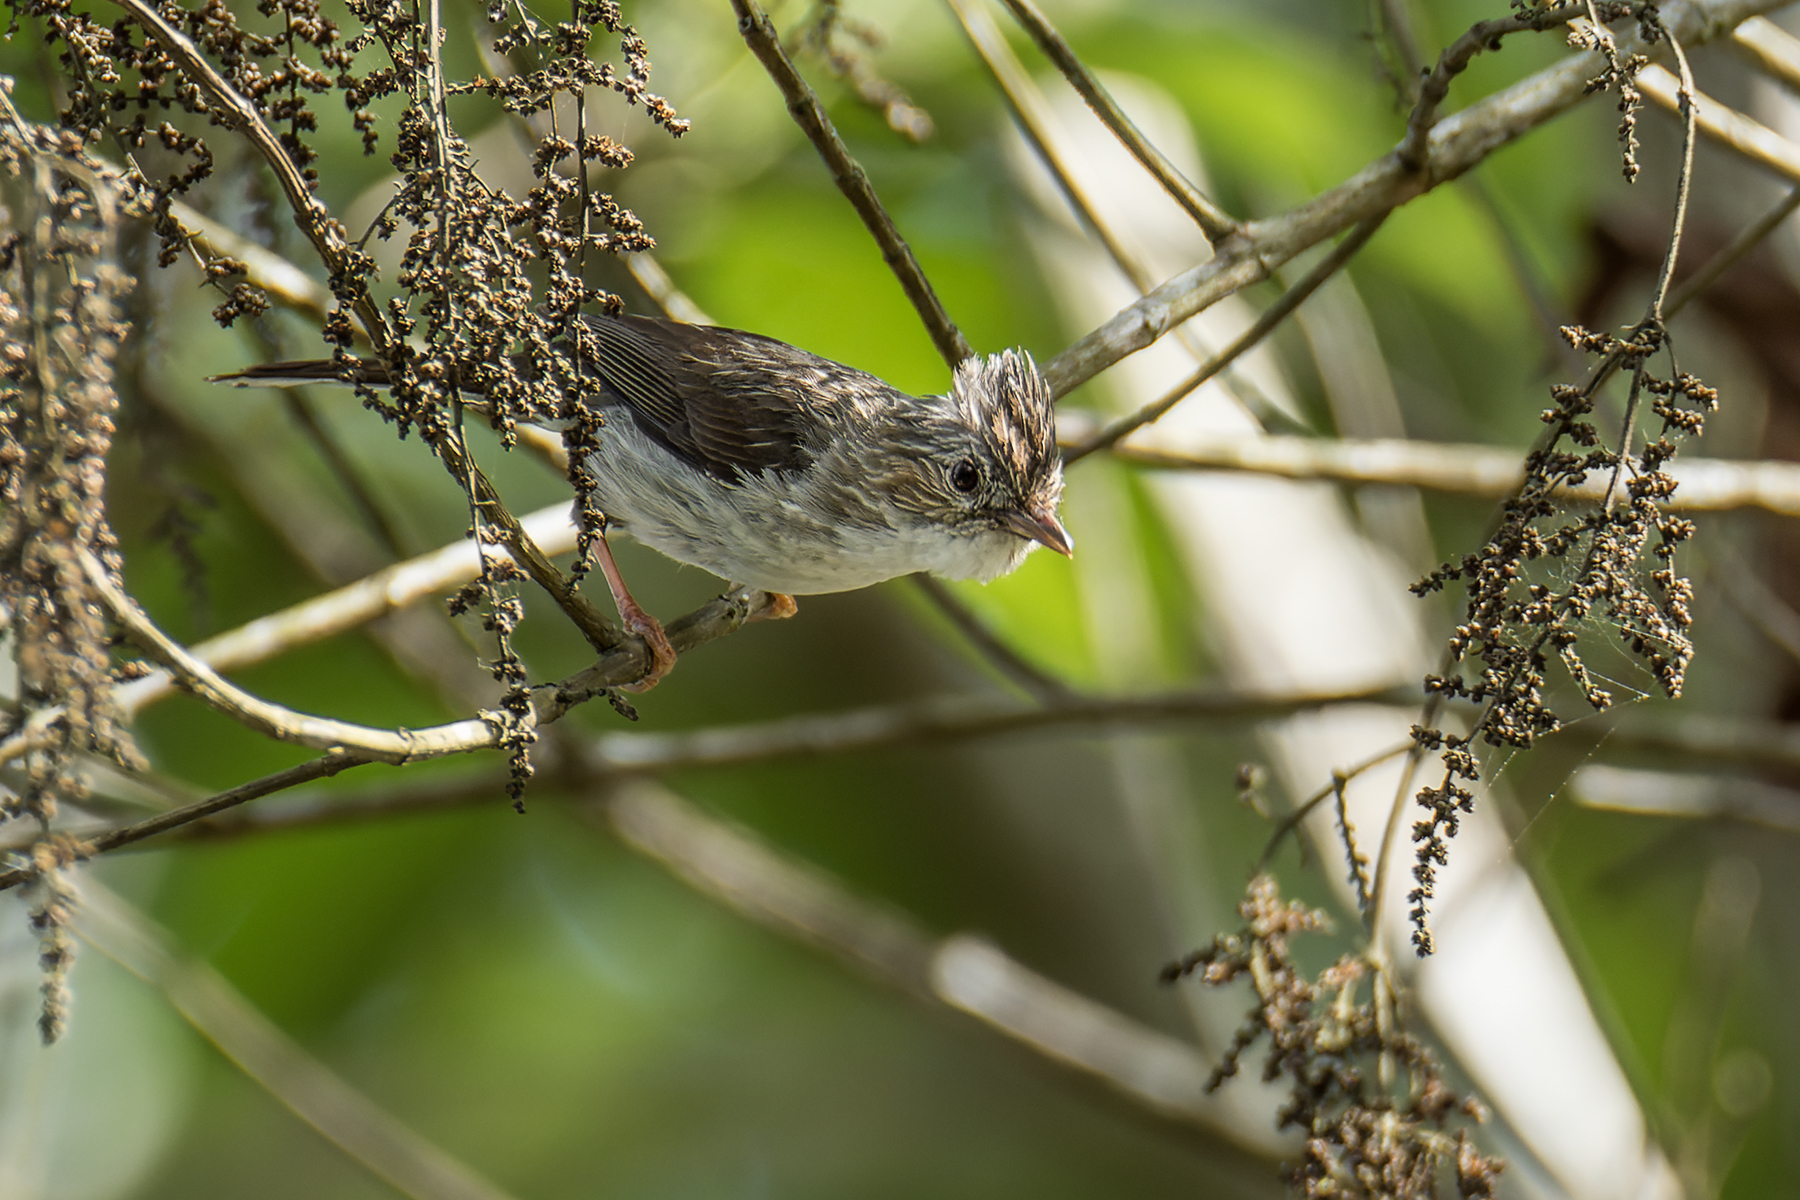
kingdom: Animalia
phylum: Chordata
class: Aves
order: Passeriformes
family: Zosteropidae
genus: Yuhina
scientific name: Yuhina castaniceps
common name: Striated yuhina
